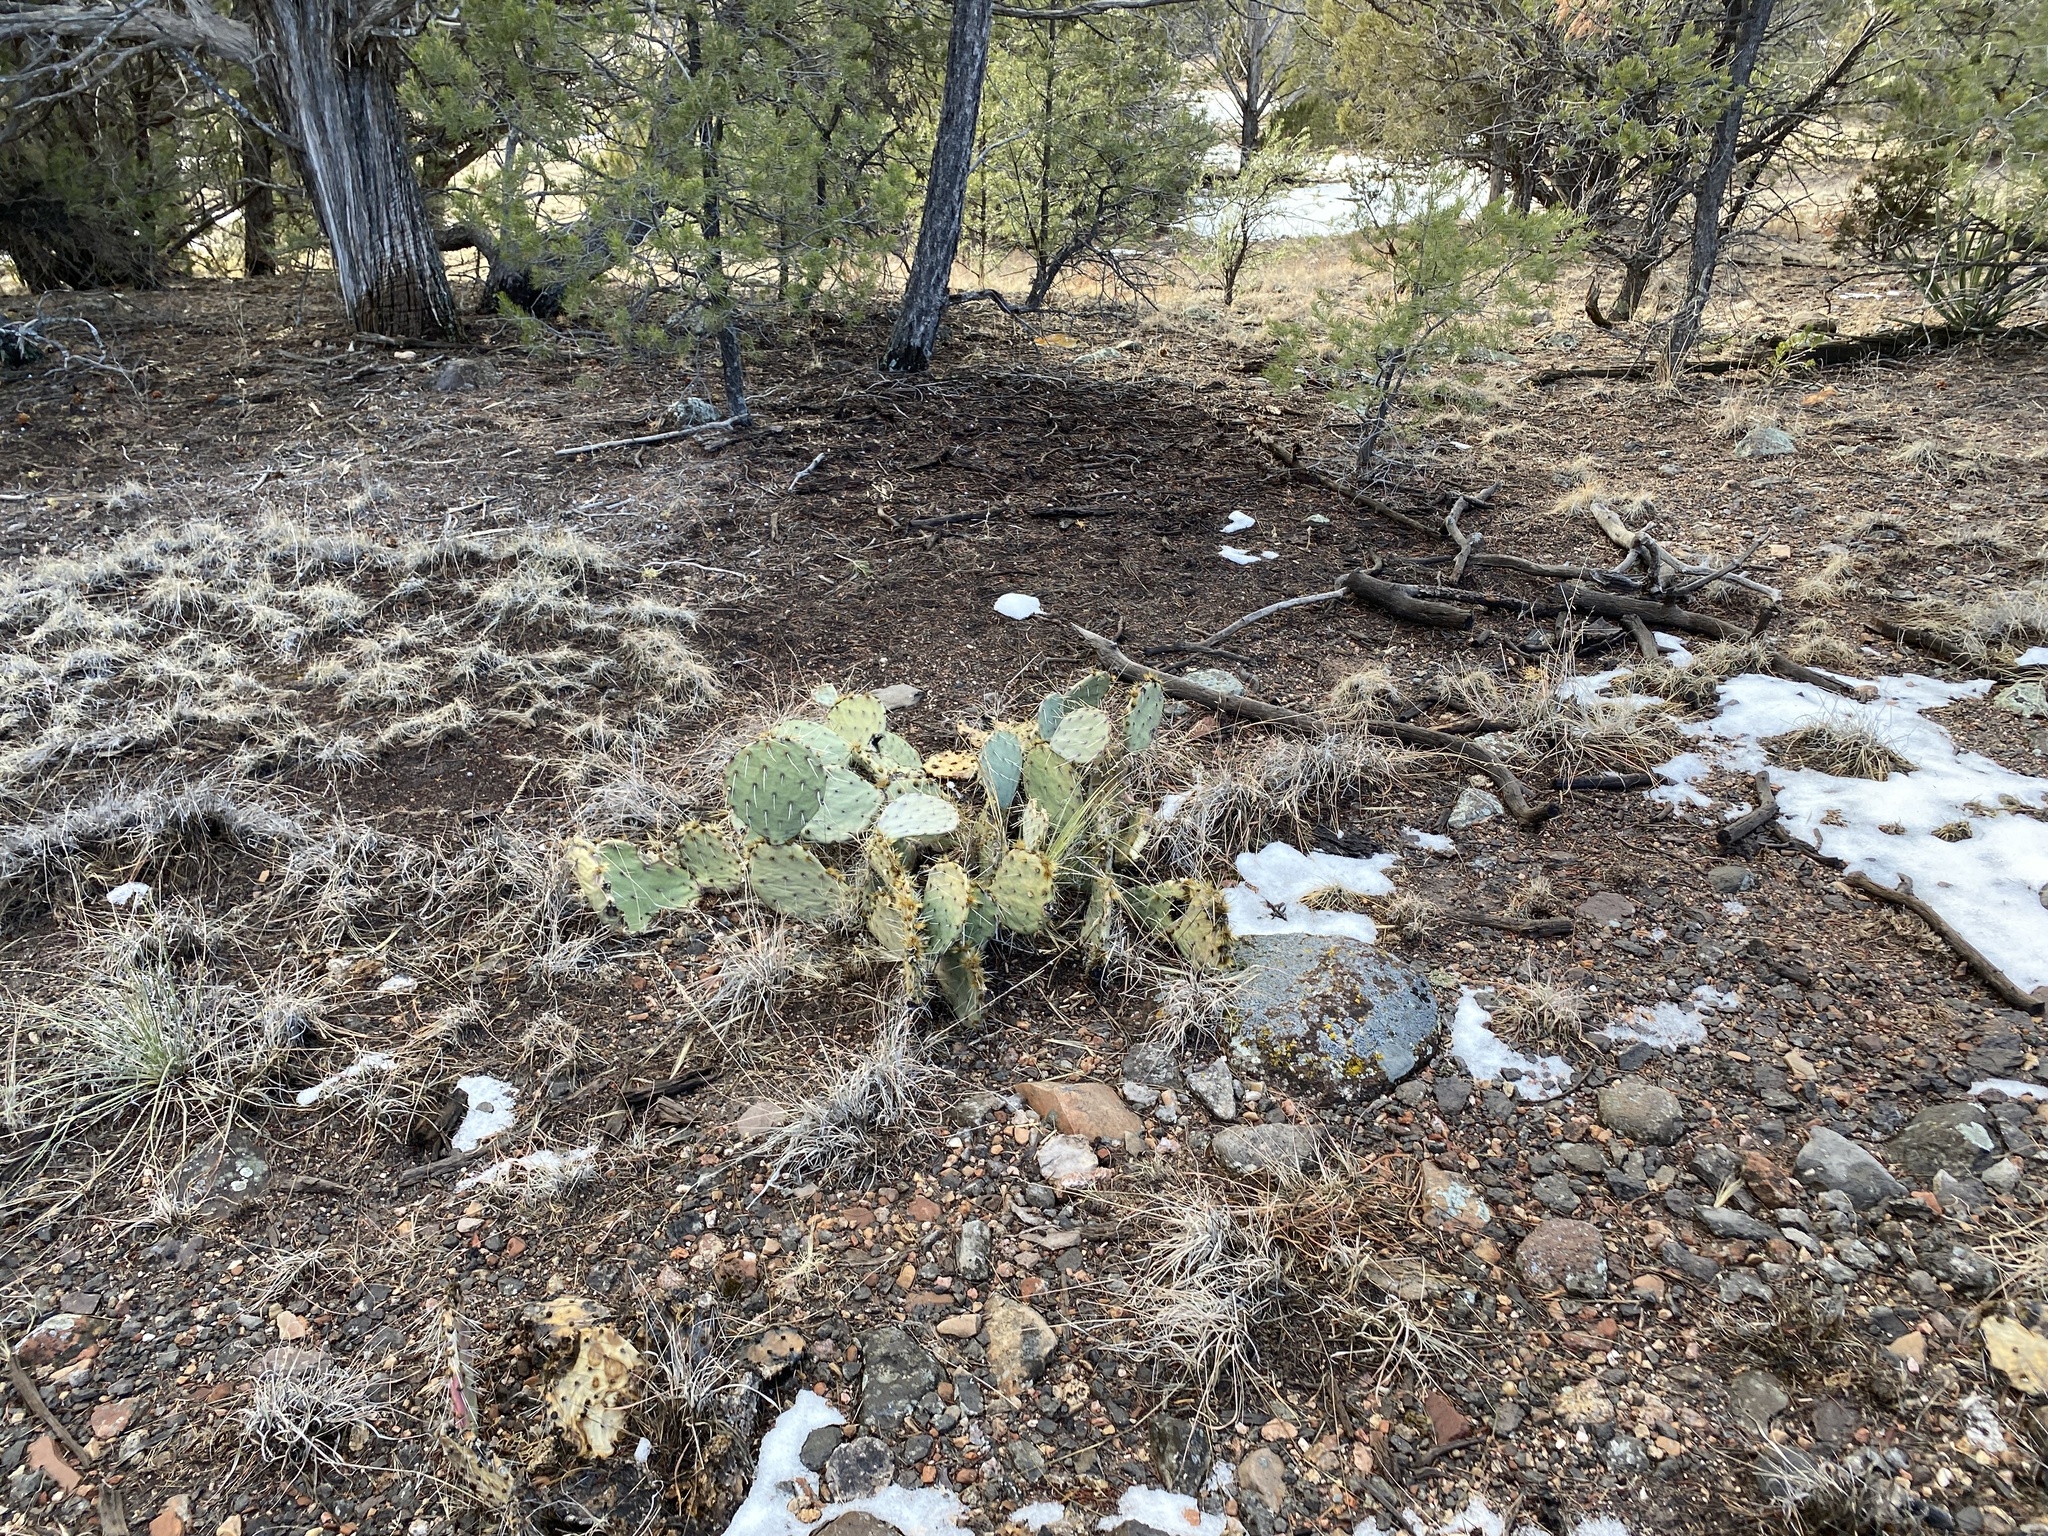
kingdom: Plantae
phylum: Tracheophyta
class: Magnoliopsida
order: Caryophyllales
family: Cactaceae
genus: Opuntia
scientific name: Opuntia phaeacantha
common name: New mexico prickly-pear
